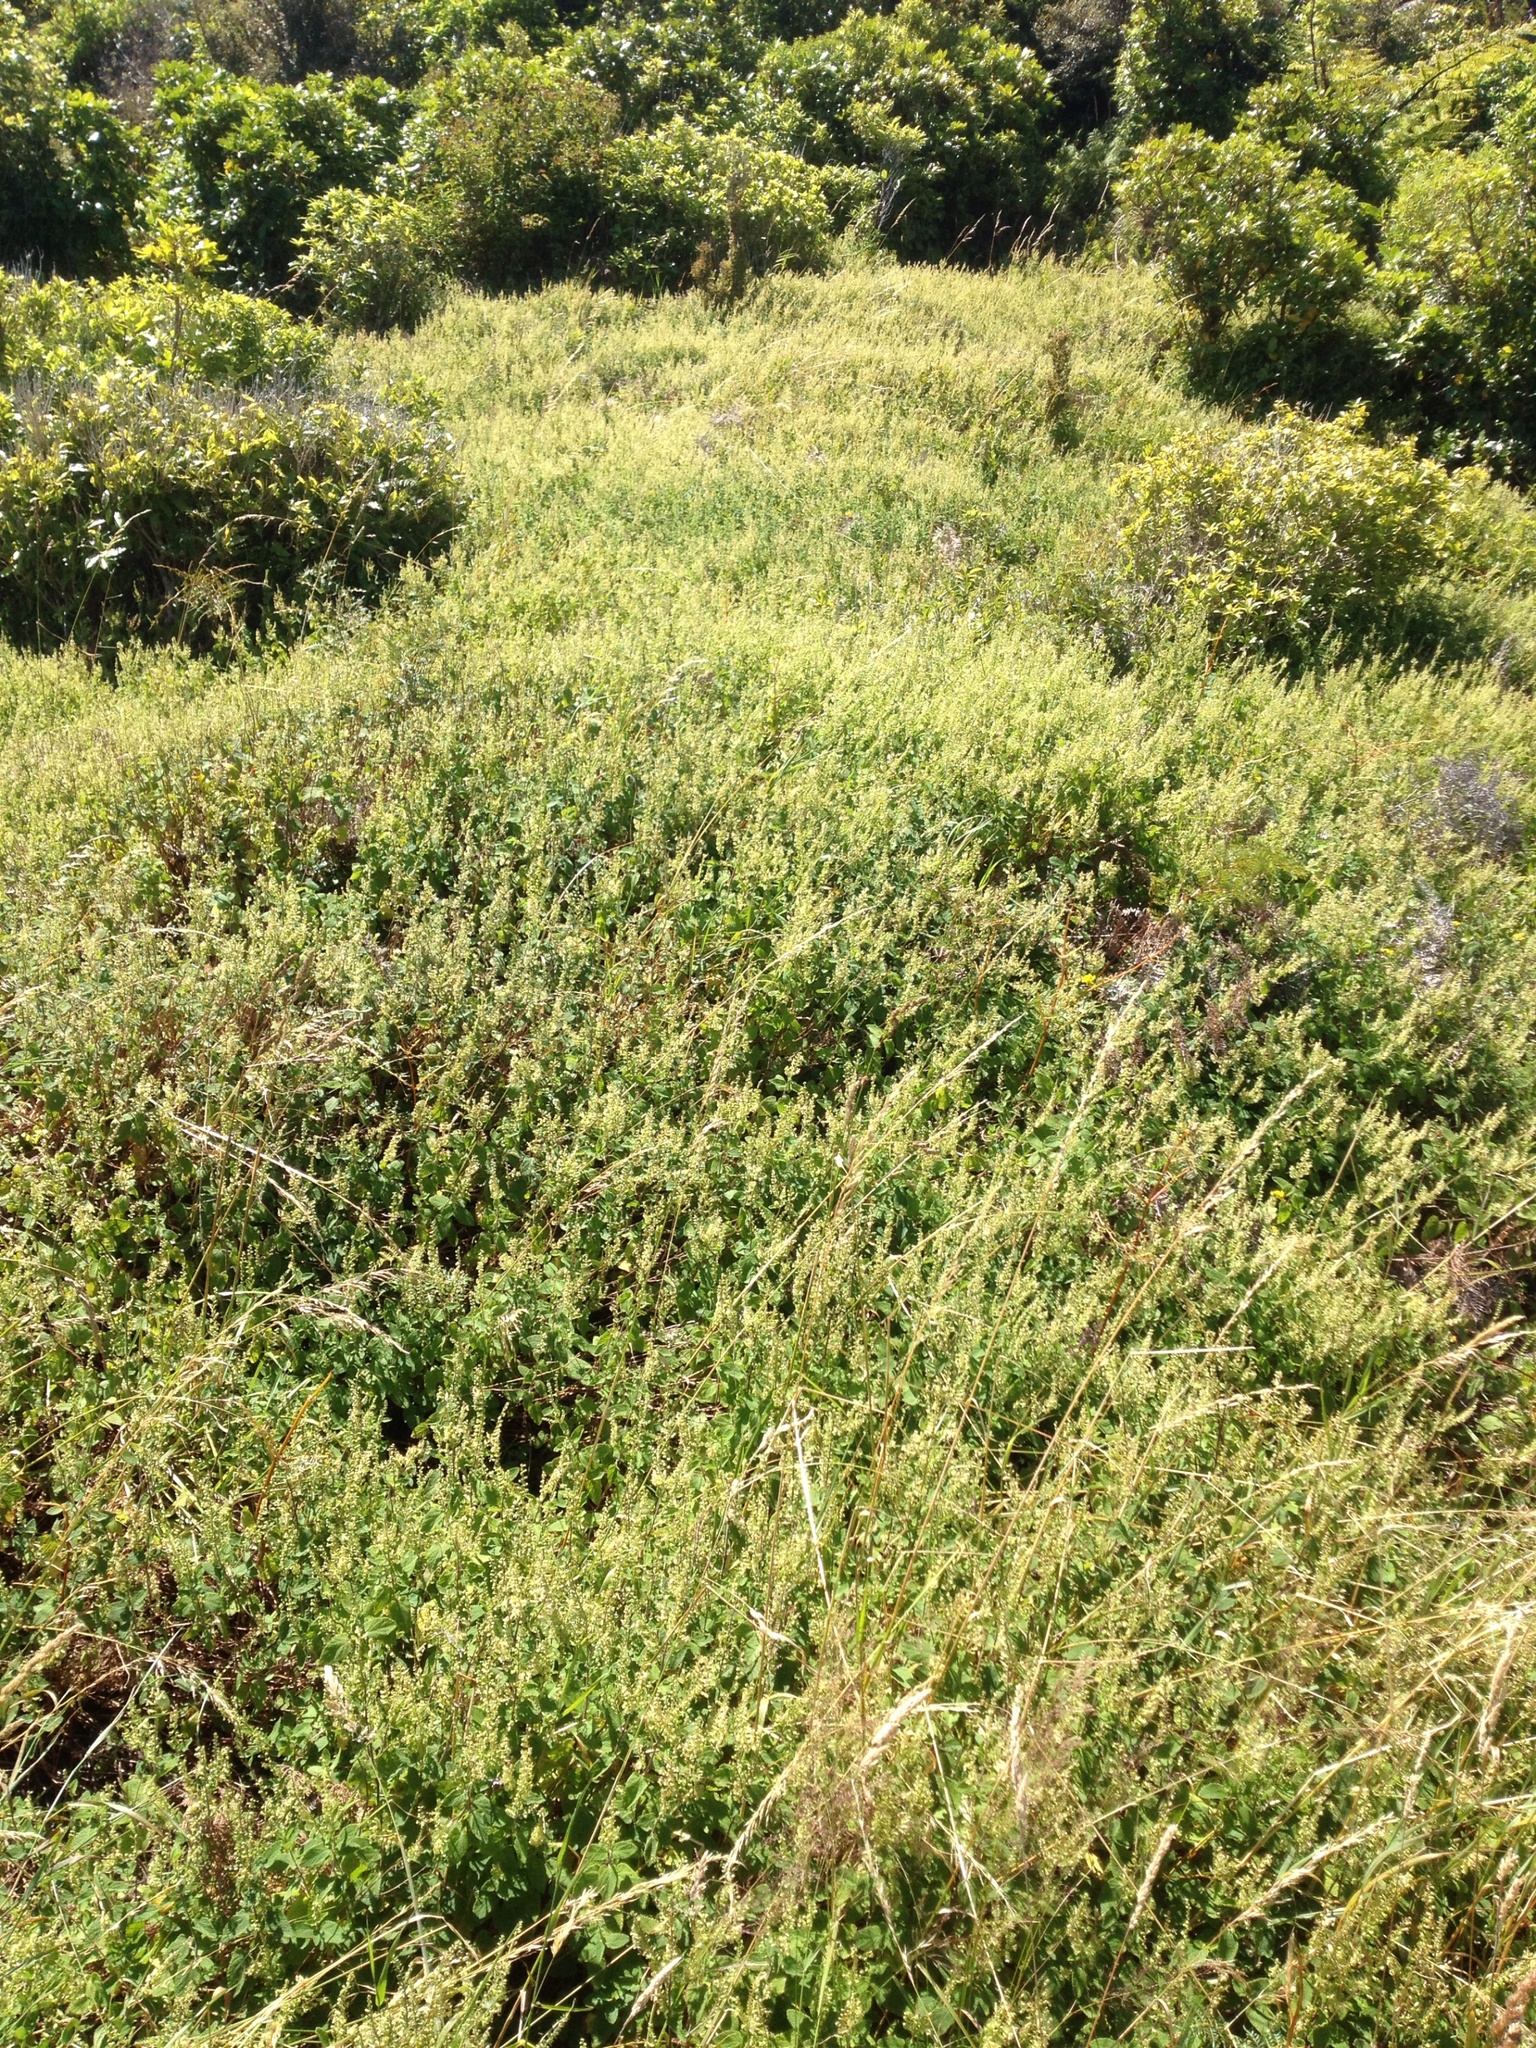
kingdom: Plantae
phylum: Tracheophyta
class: Magnoliopsida
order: Lamiales
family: Lamiaceae
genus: Teucrium
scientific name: Teucrium scorodonia
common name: Woodland germander
